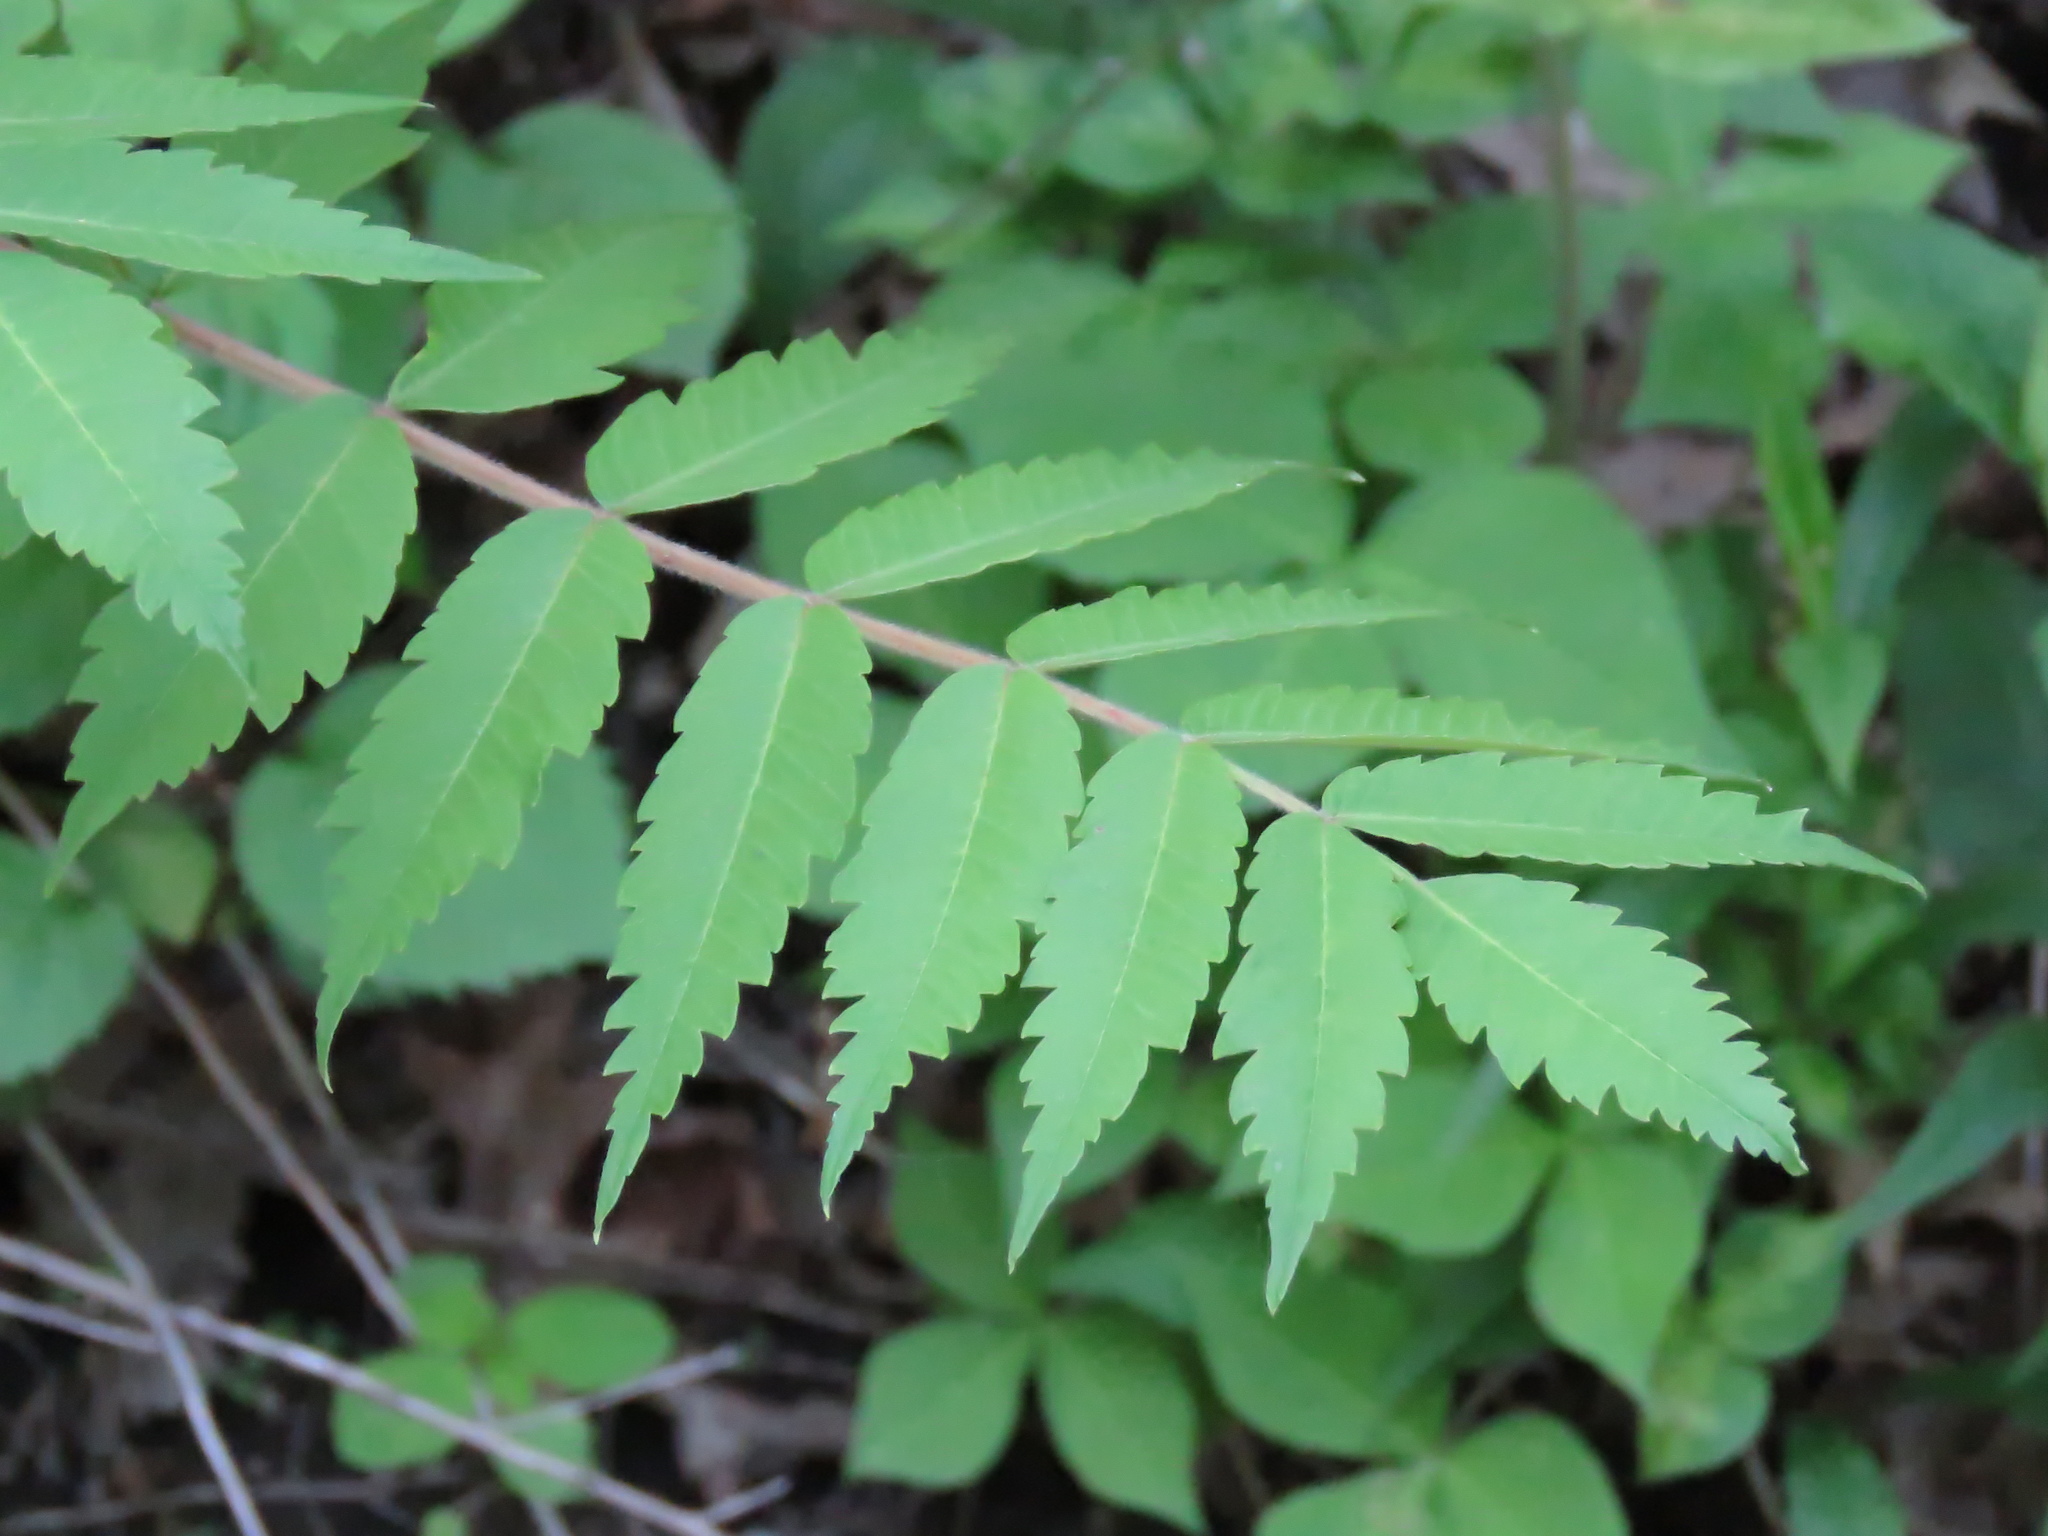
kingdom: Plantae
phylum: Tracheophyta
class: Magnoliopsida
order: Sapindales
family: Anacardiaceae
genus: Rhus
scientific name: Rhus typhina
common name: Staghorn sumac
